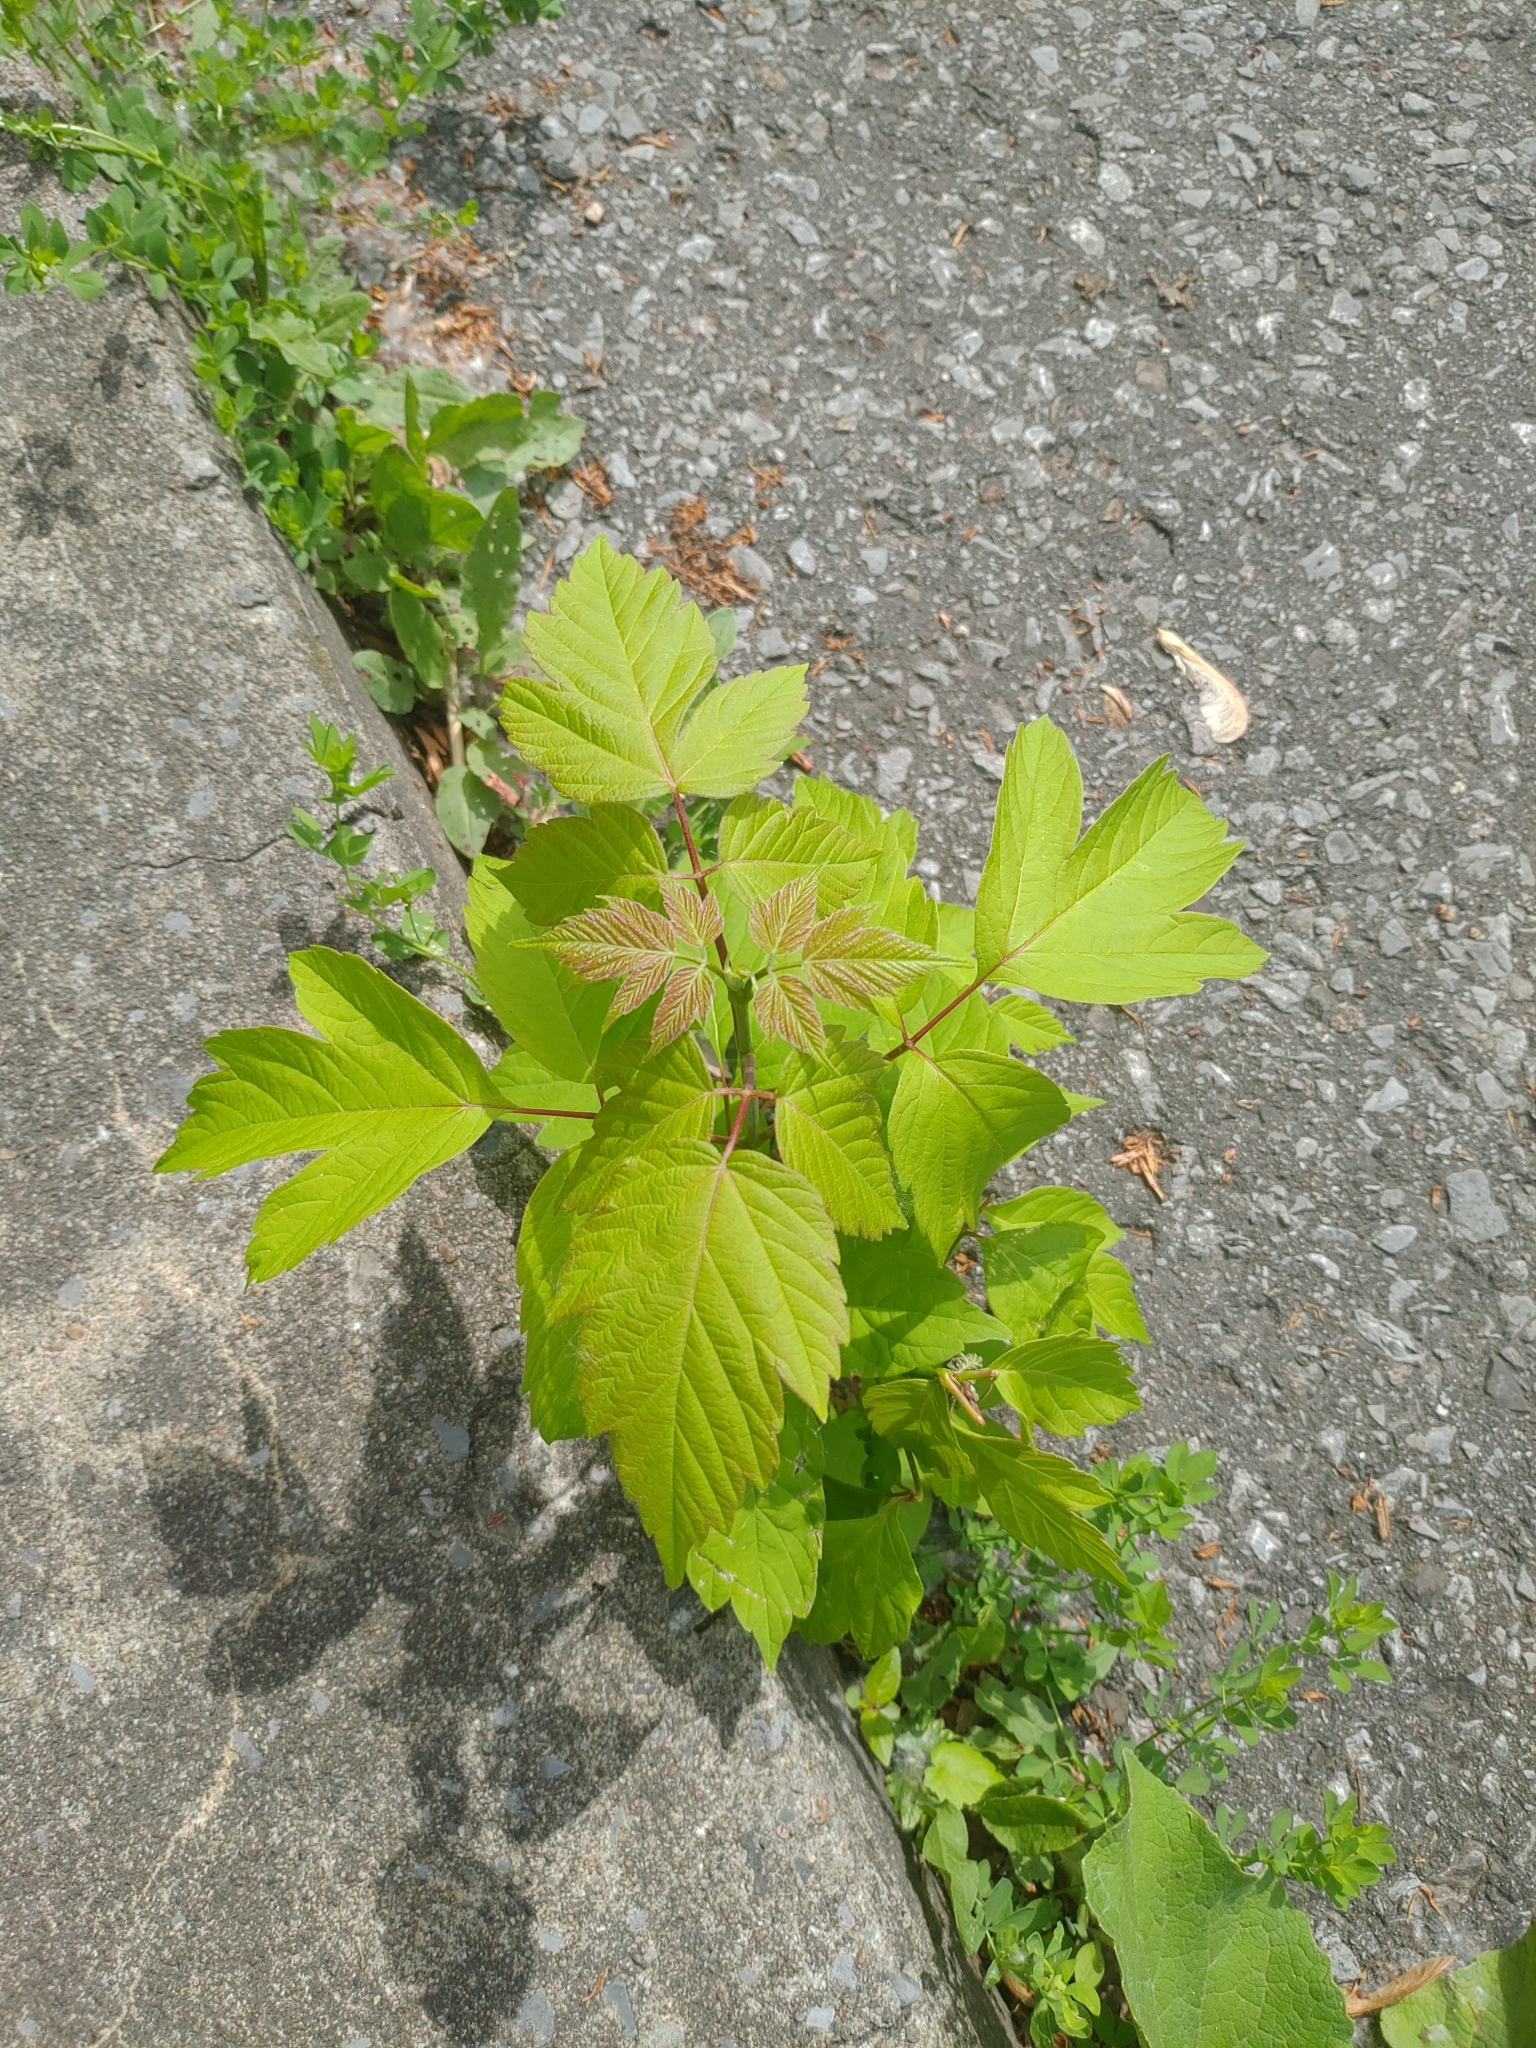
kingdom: Plantae
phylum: Tracheophyta
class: Magnoliopsida
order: Sapindales
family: Sapindaceae
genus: Acer
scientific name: Acer negundo
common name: Ashleaf maple
